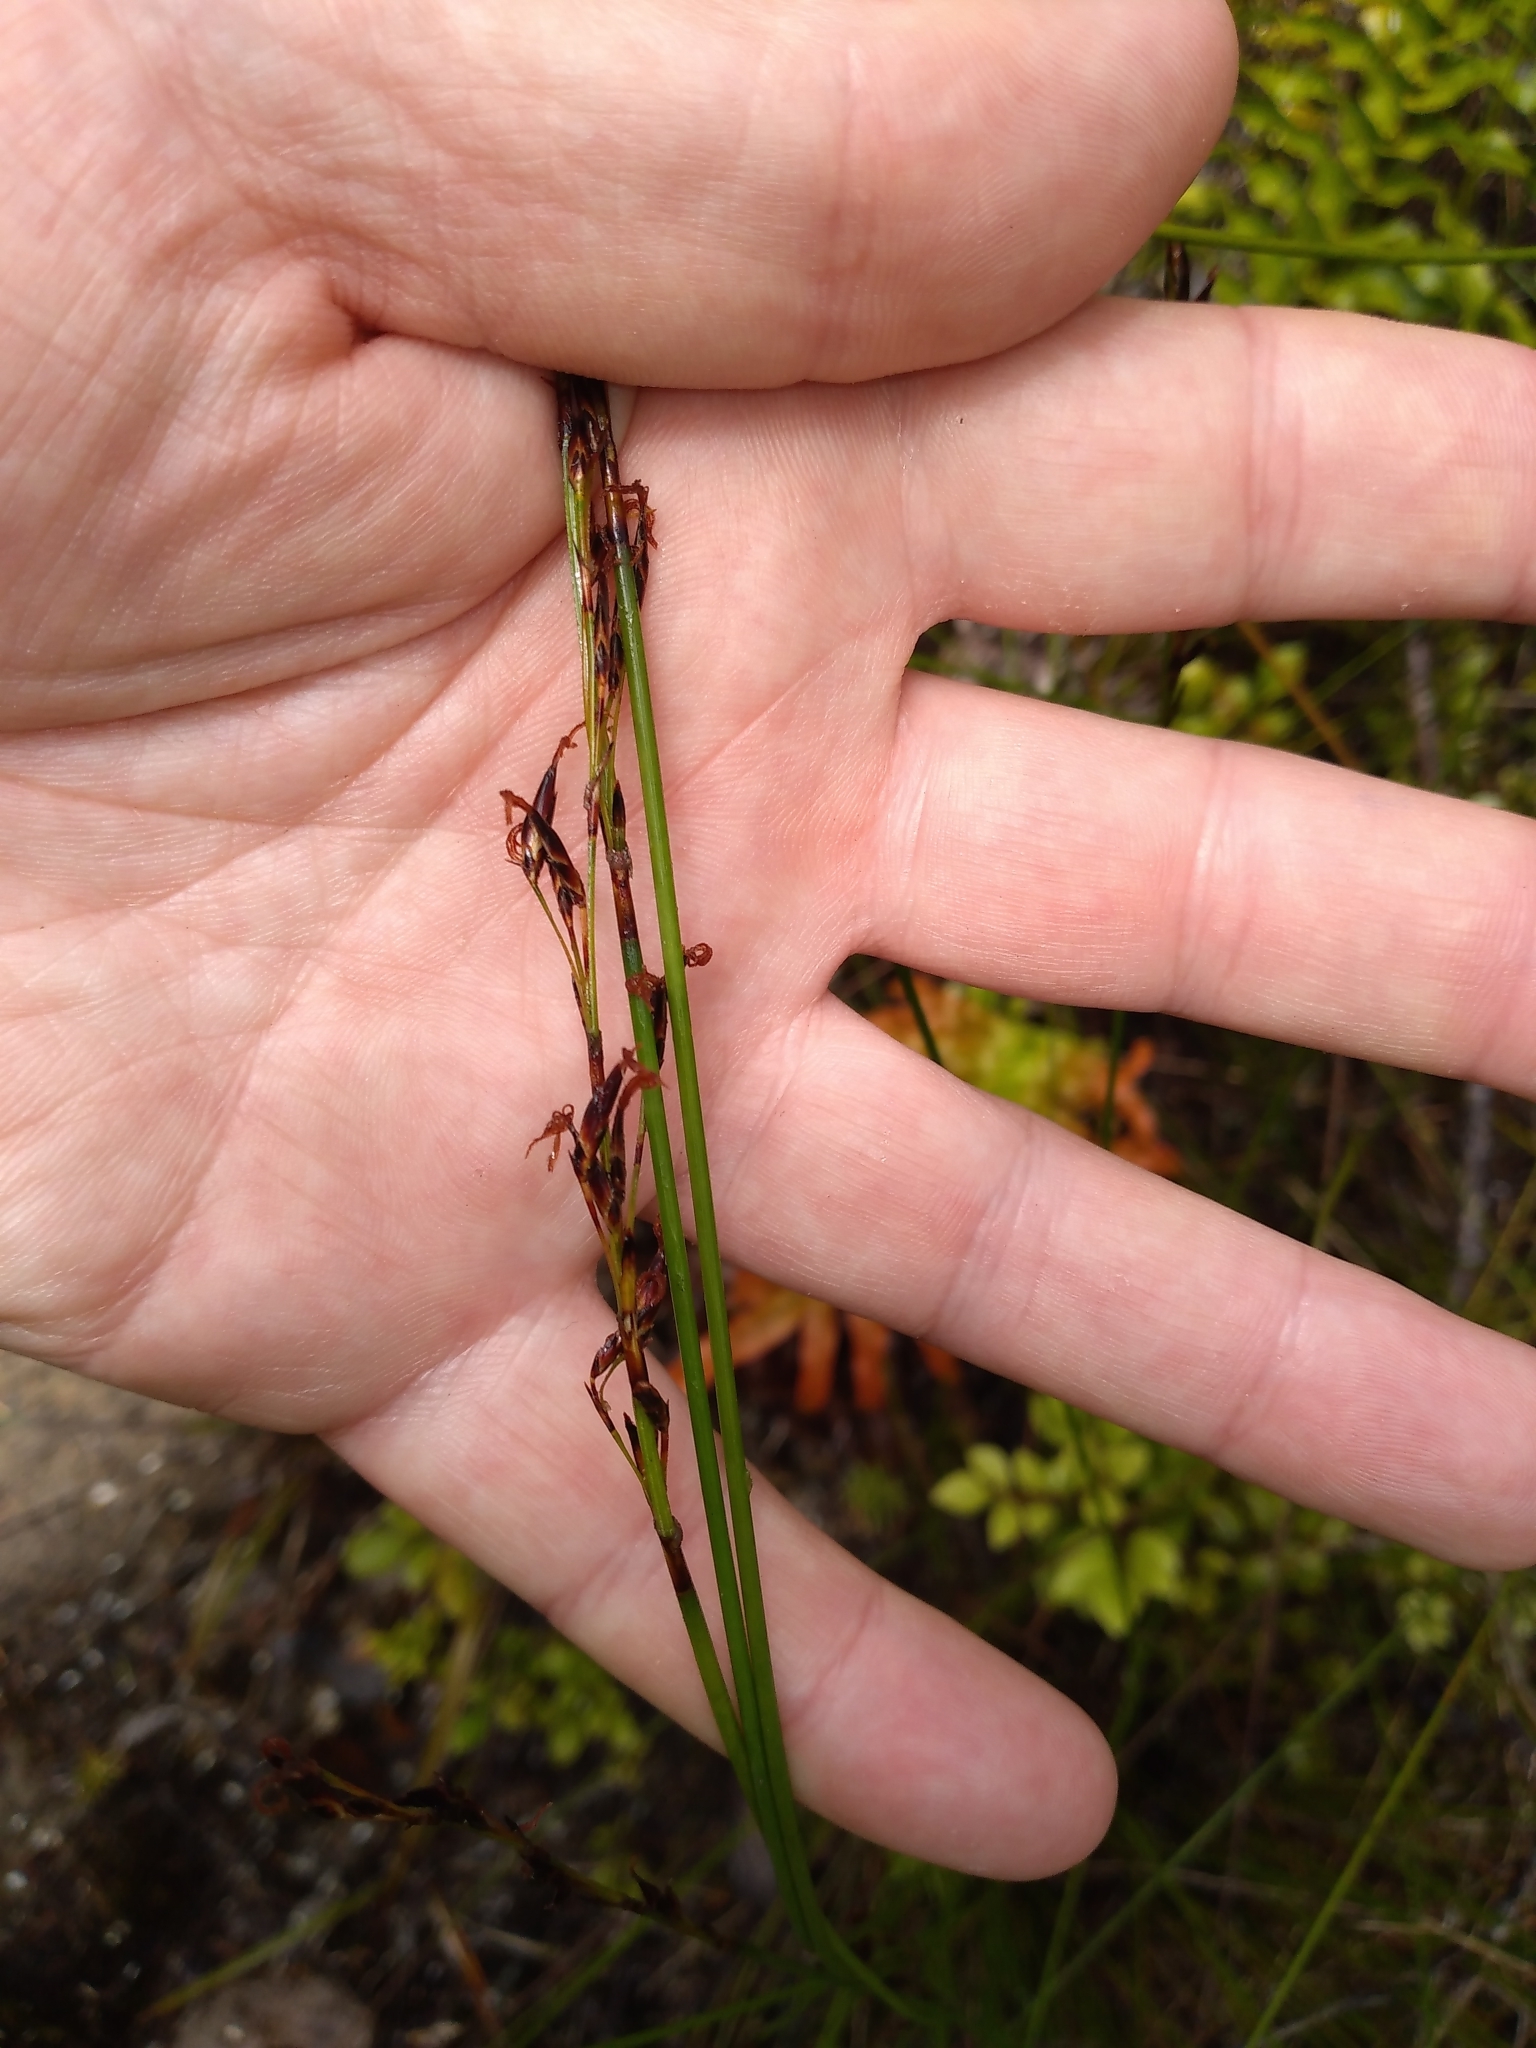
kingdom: Plantae
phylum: Tracheophyta
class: Liliopsida
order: Poales
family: Cyperaceae
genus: Schoenus
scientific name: Schoenus tendo
